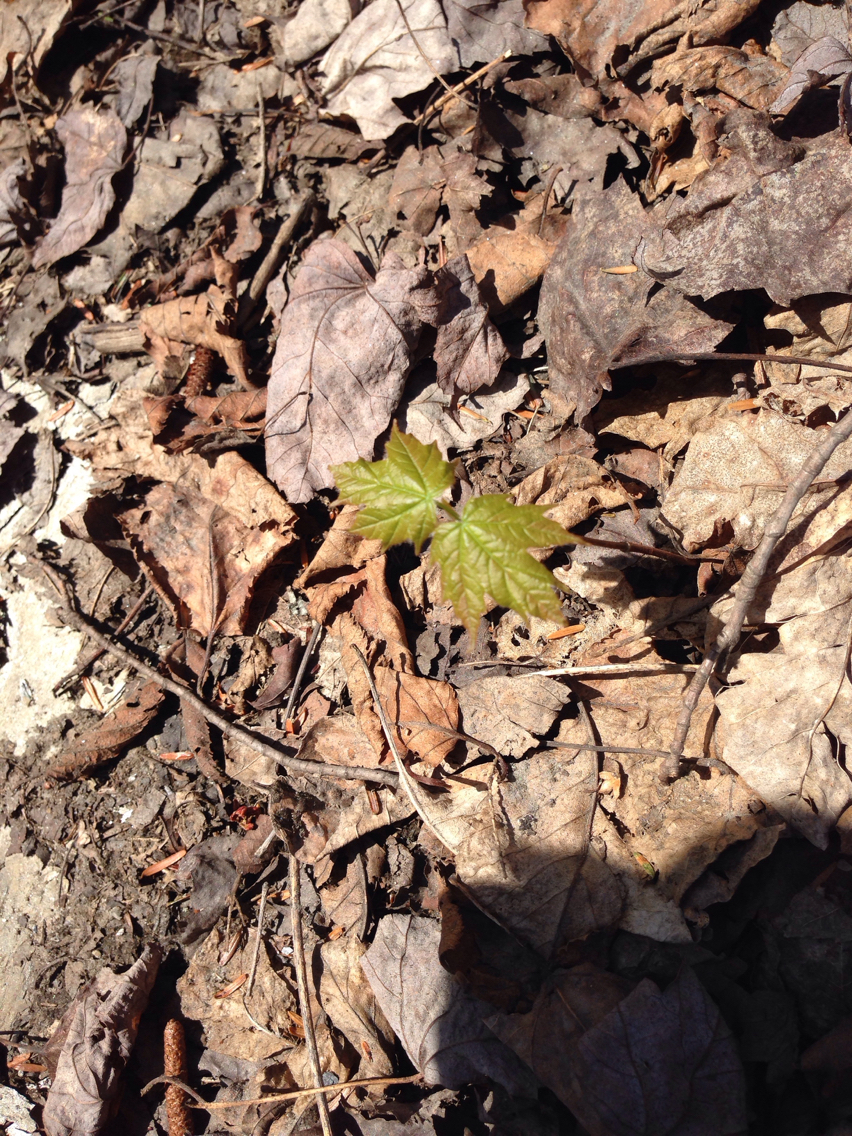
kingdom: Plantae
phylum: Tracheophyta
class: Magnoliopsida
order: Sapindales
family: Sapindaceae
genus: Acer
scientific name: Acer saccharum
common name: Sugar maple
